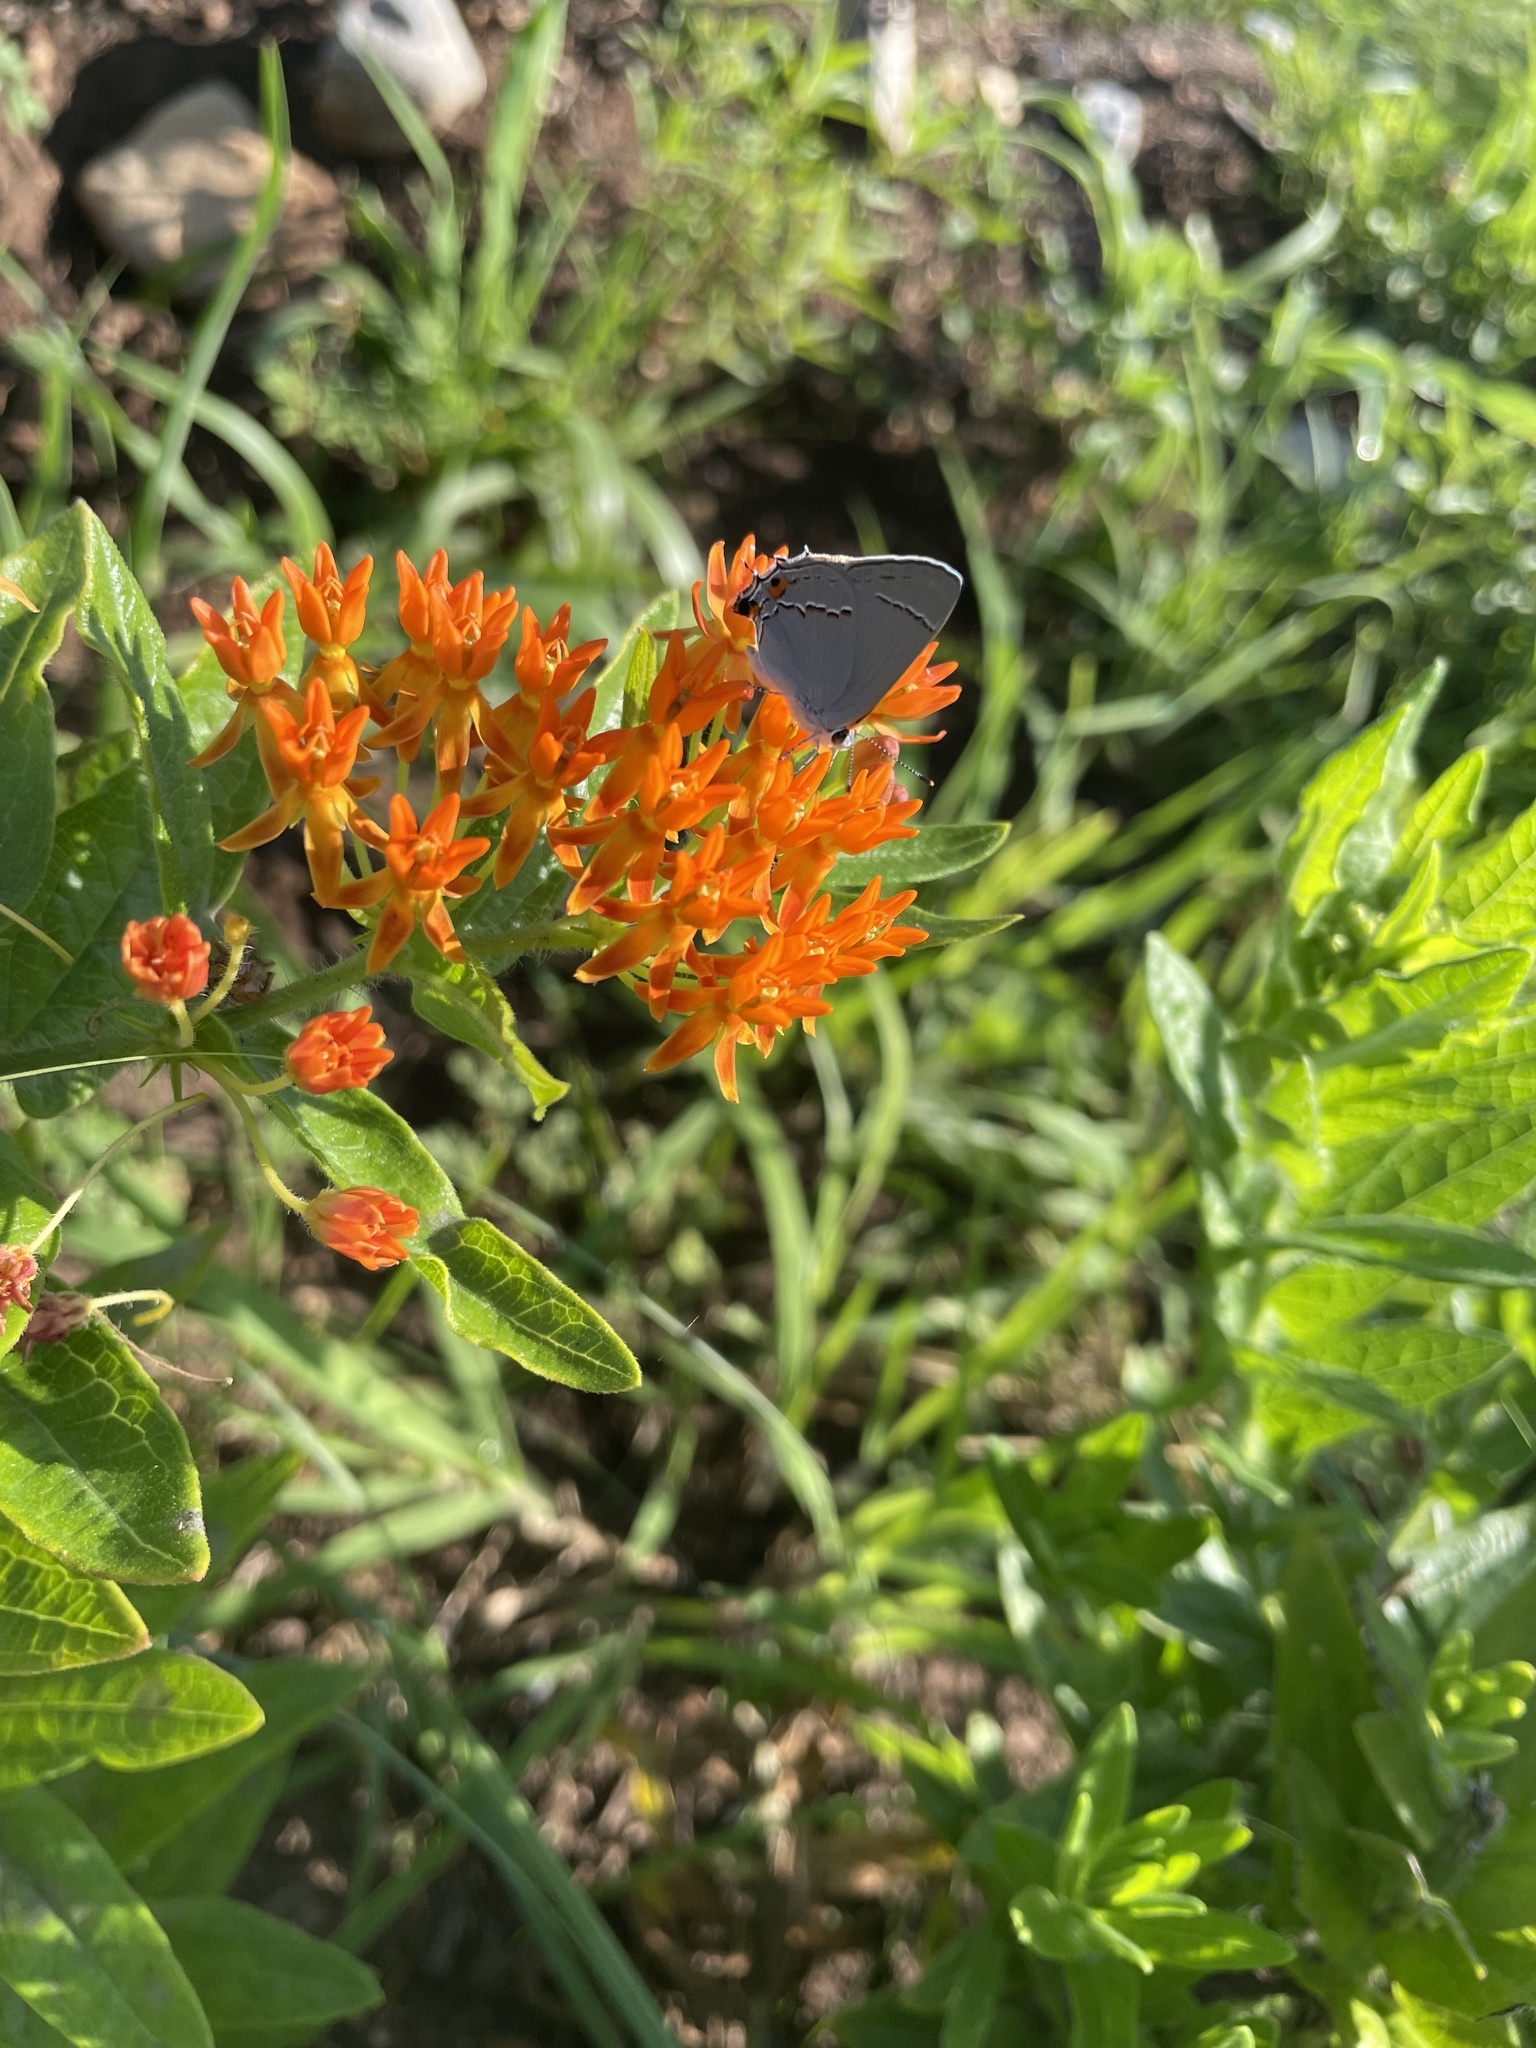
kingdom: Animalia
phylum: Arthropoda
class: Insecta
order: Lepidoptera
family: Lycaenidae
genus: Strymon
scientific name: Strymon melinus
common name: Gray hairstreak
